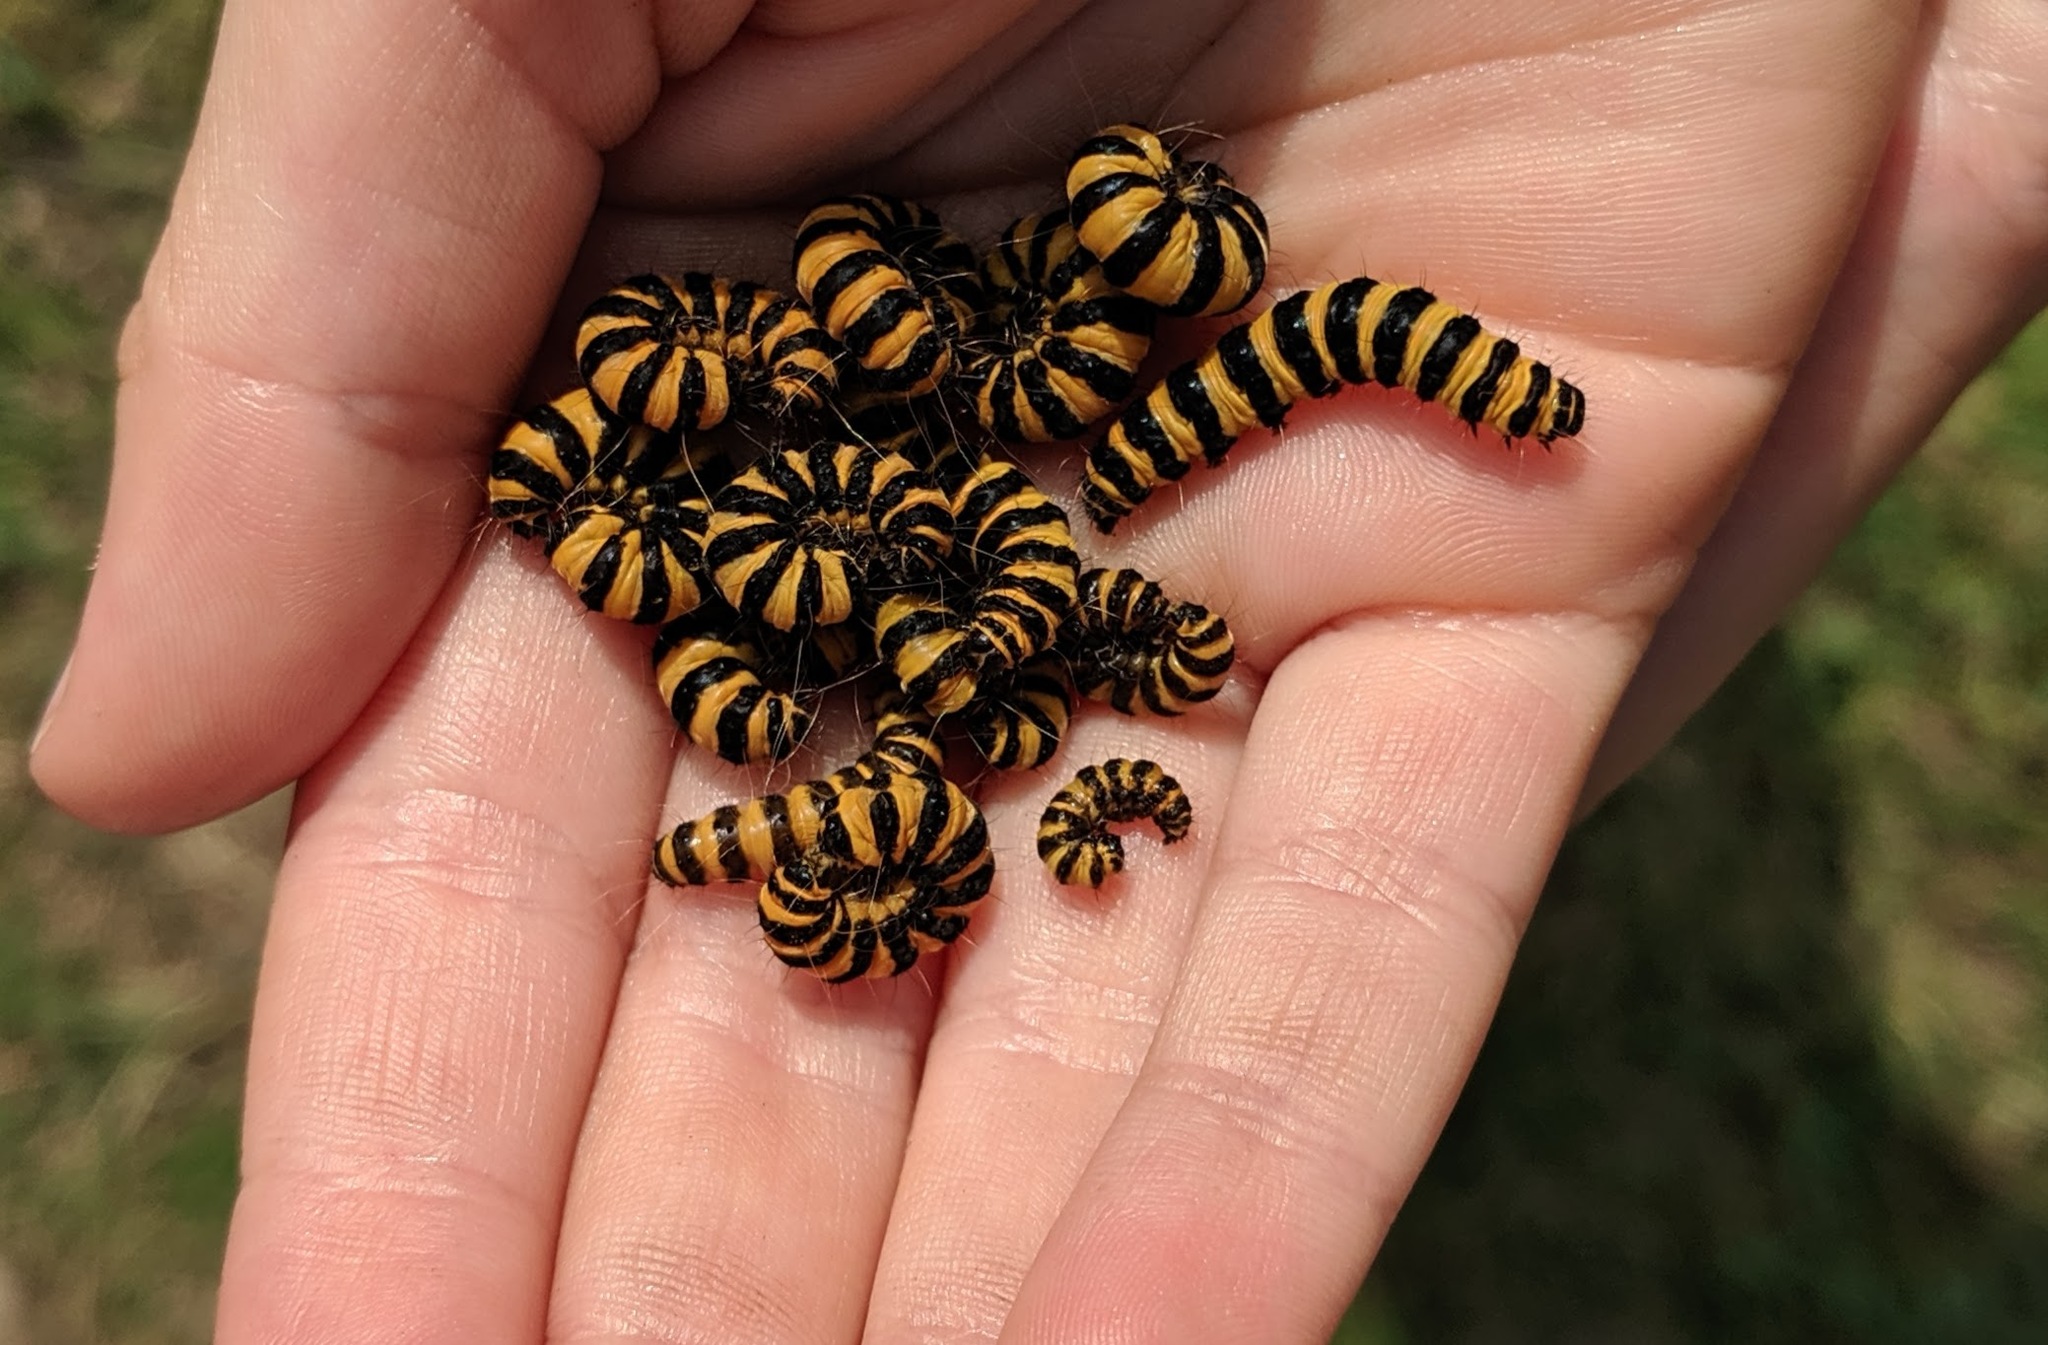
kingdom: Animalia
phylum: Arthropoda
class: Insecta
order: Lepidoptera
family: Erebidae
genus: Tyria
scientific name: Tyria jacobaeae
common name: Cinnabar
